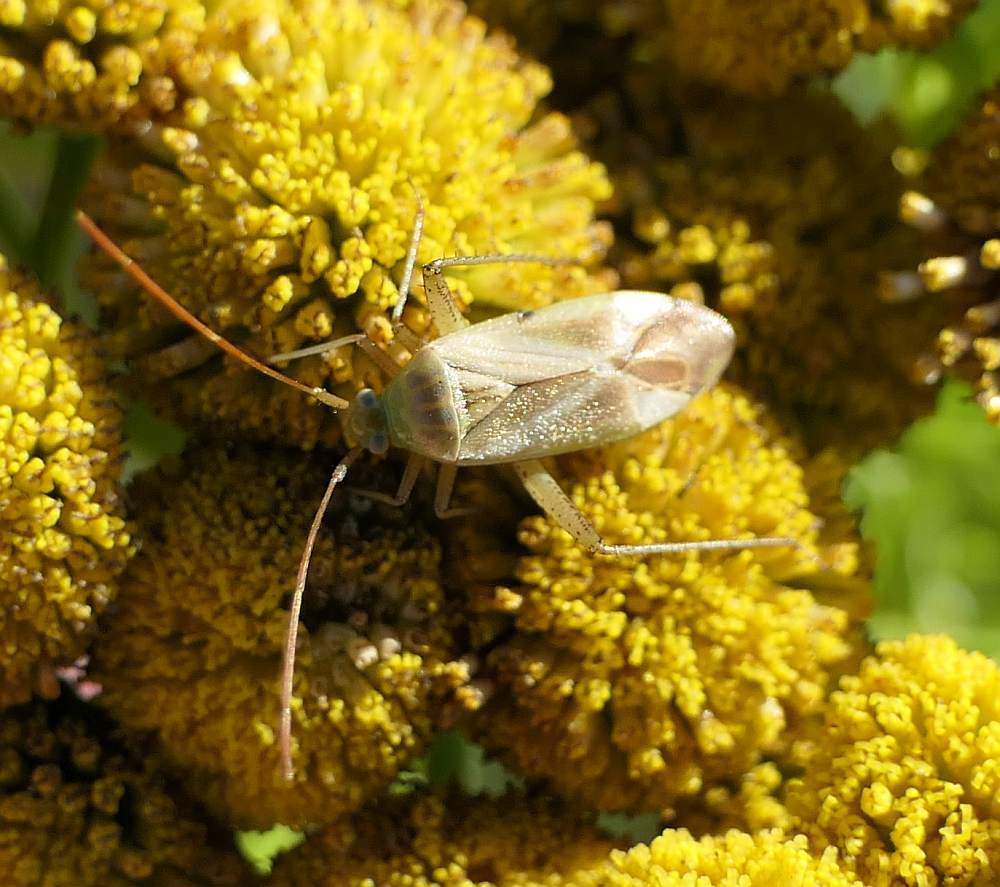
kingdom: Animalia
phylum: Arthropoda
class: Insecta
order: Hemiptera
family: Miridae
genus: Adelphocoris
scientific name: Adelphocoris lineolatus
